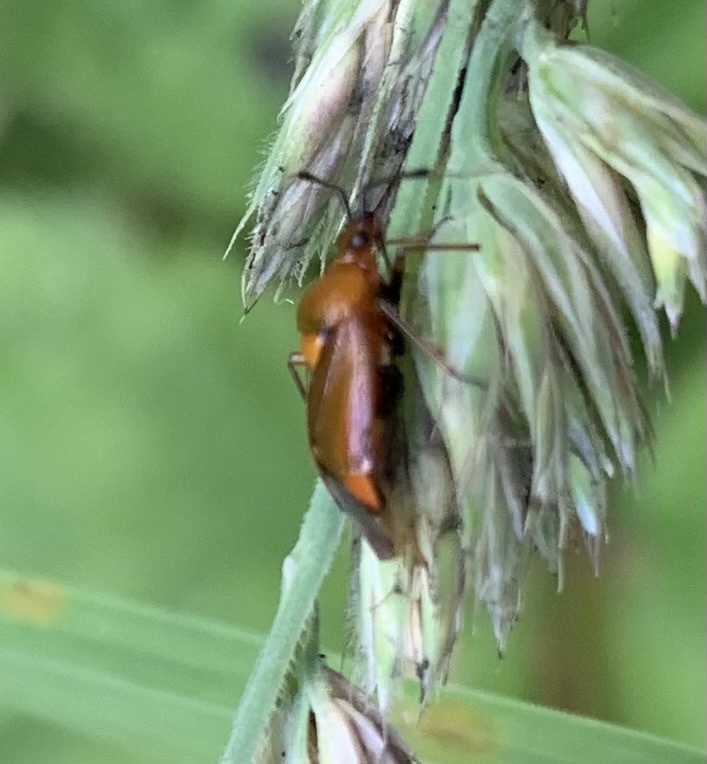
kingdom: Animalia
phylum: Arthropoda
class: Insecta
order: Hemiptera
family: Miridae
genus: Deraeocoris
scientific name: Deraeocoris ruber
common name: Plant bug
